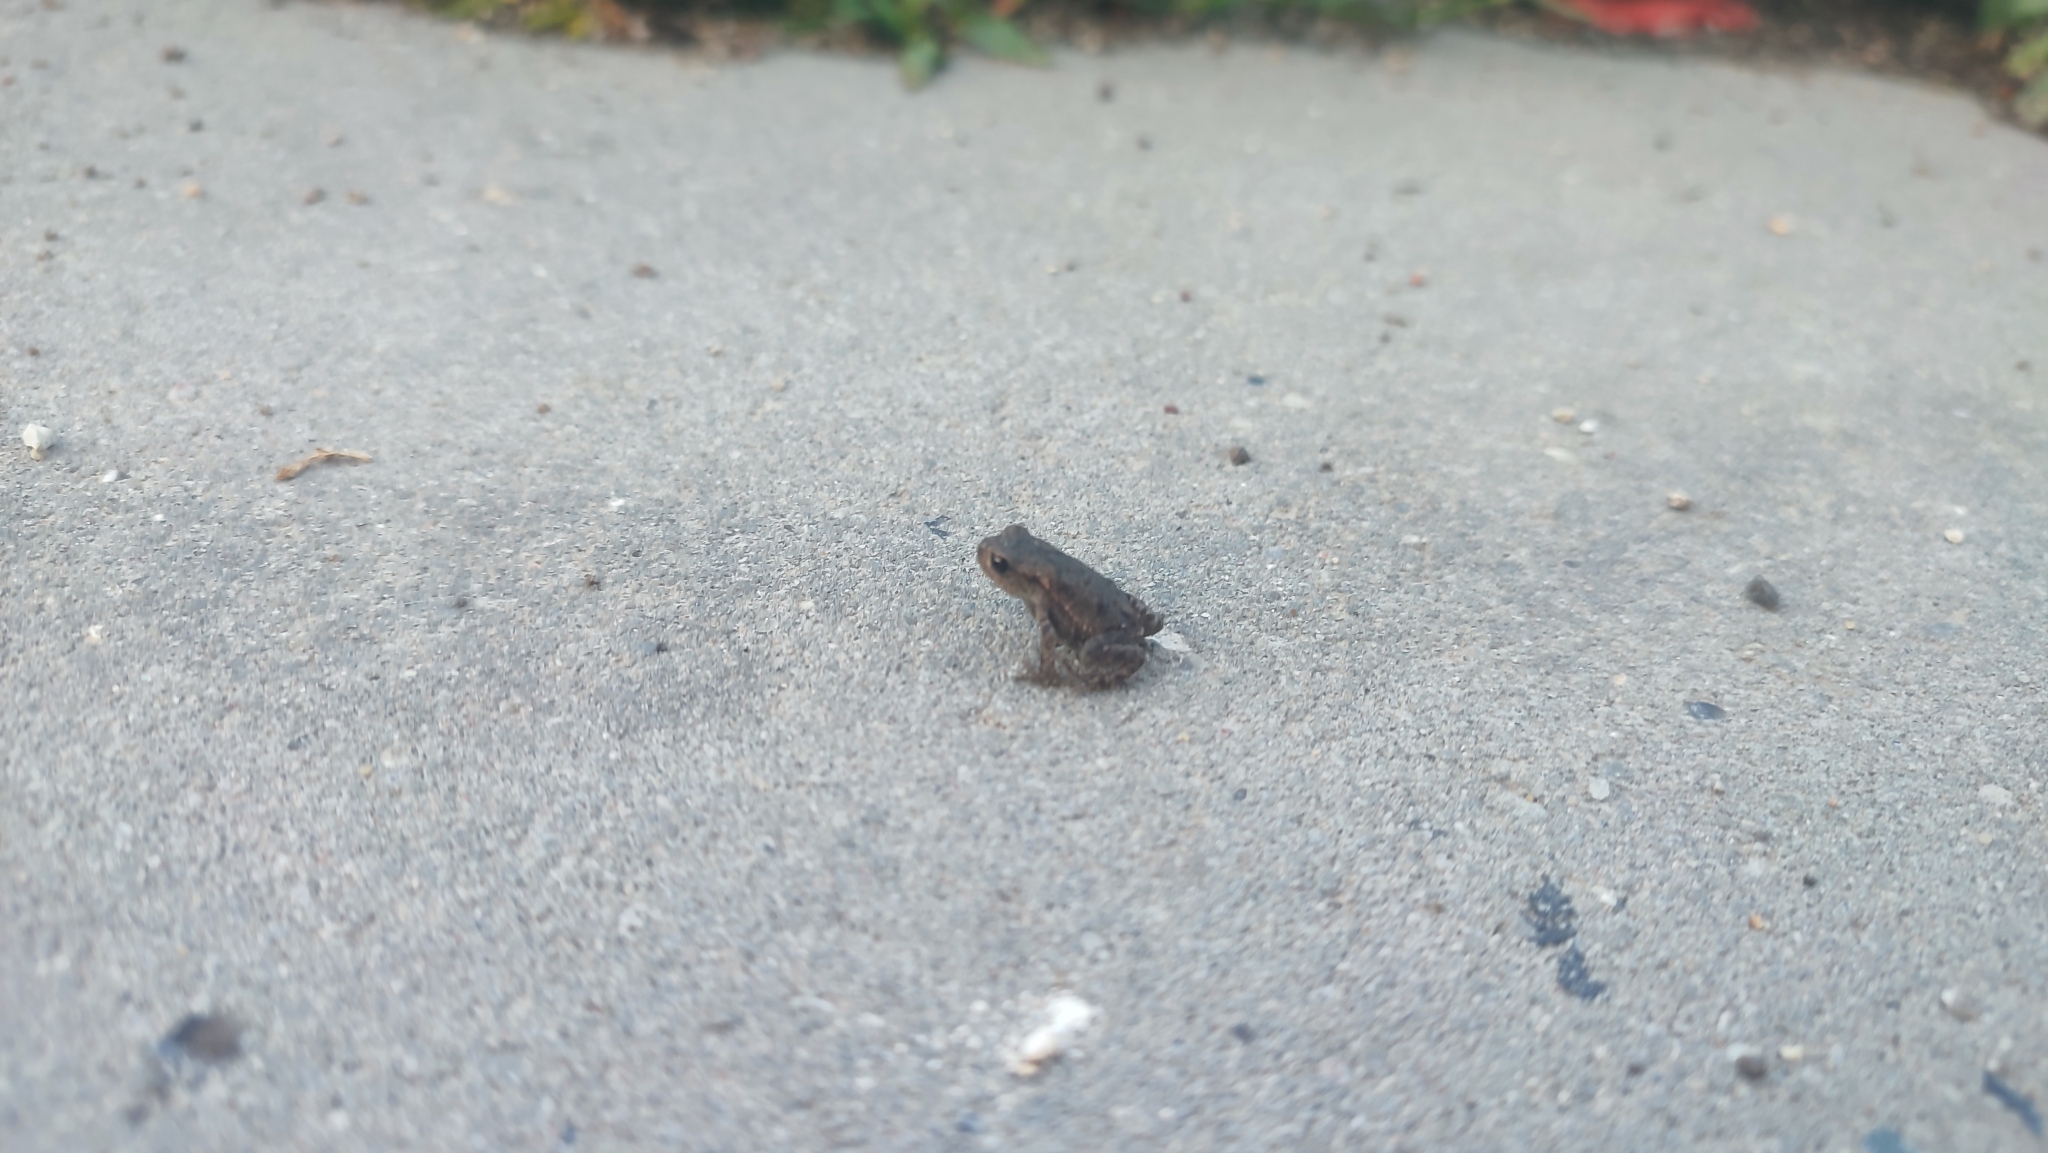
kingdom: Animalia
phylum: Chordata
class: Amphibia
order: Anura
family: Bufonidae
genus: Bufo
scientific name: Bufo bufo
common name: Common toad
